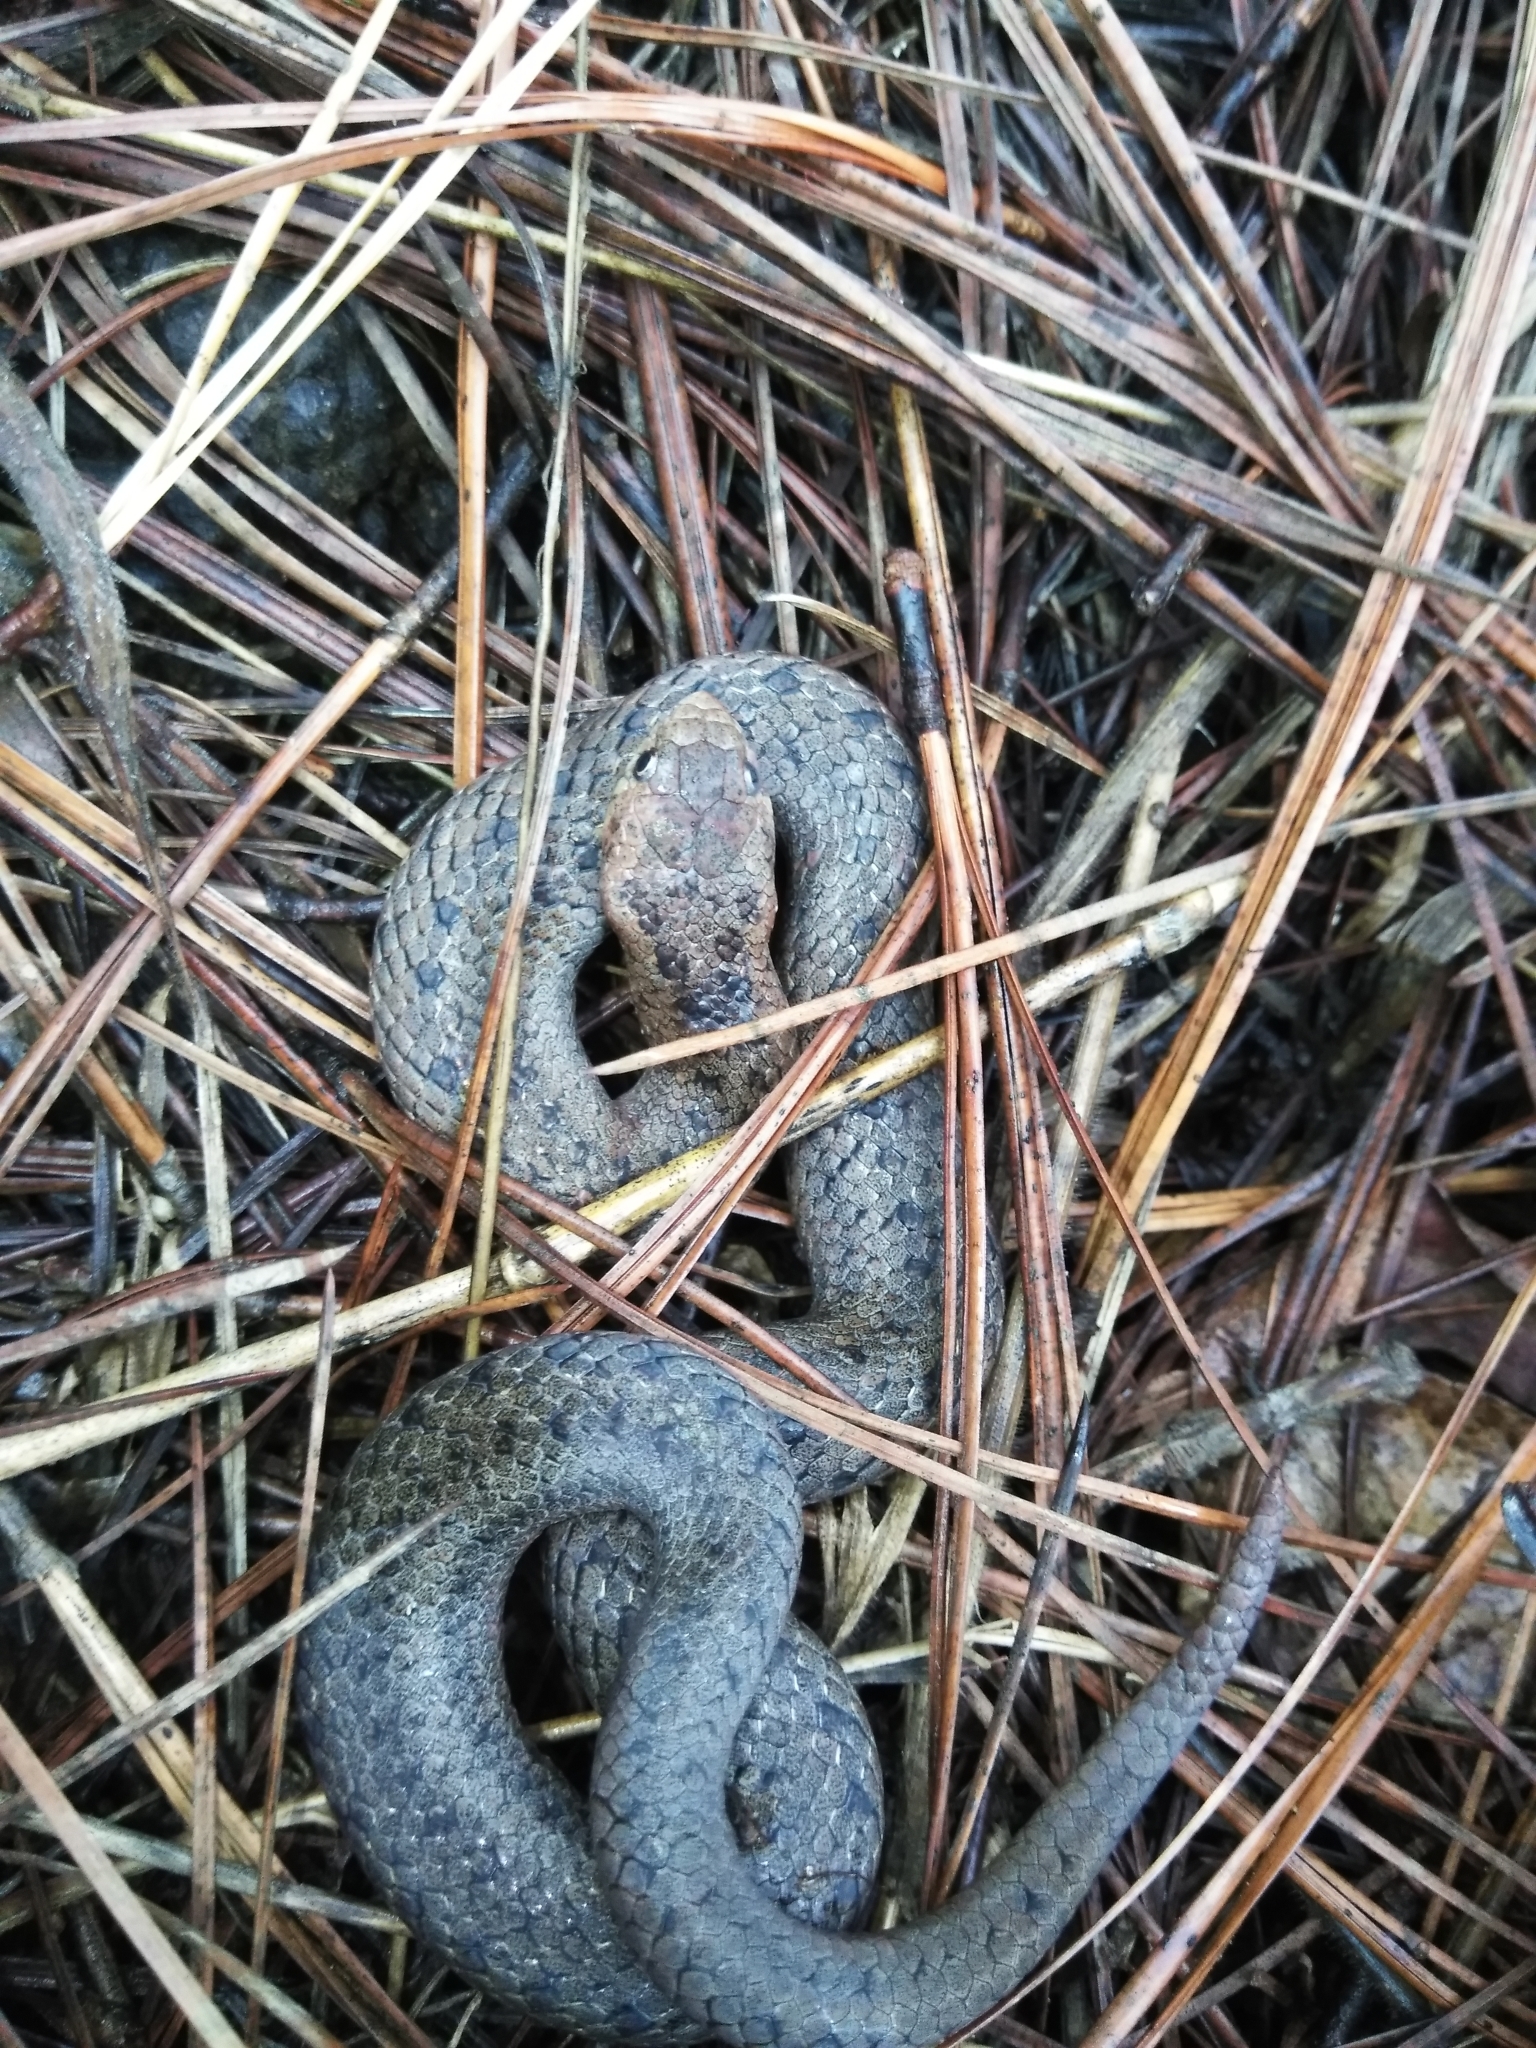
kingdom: Animalia
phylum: Chordata
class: Squamata
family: Colubridae
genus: Conopsis
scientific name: Conopsis biserialis
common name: Two-lined mexican earth snake
